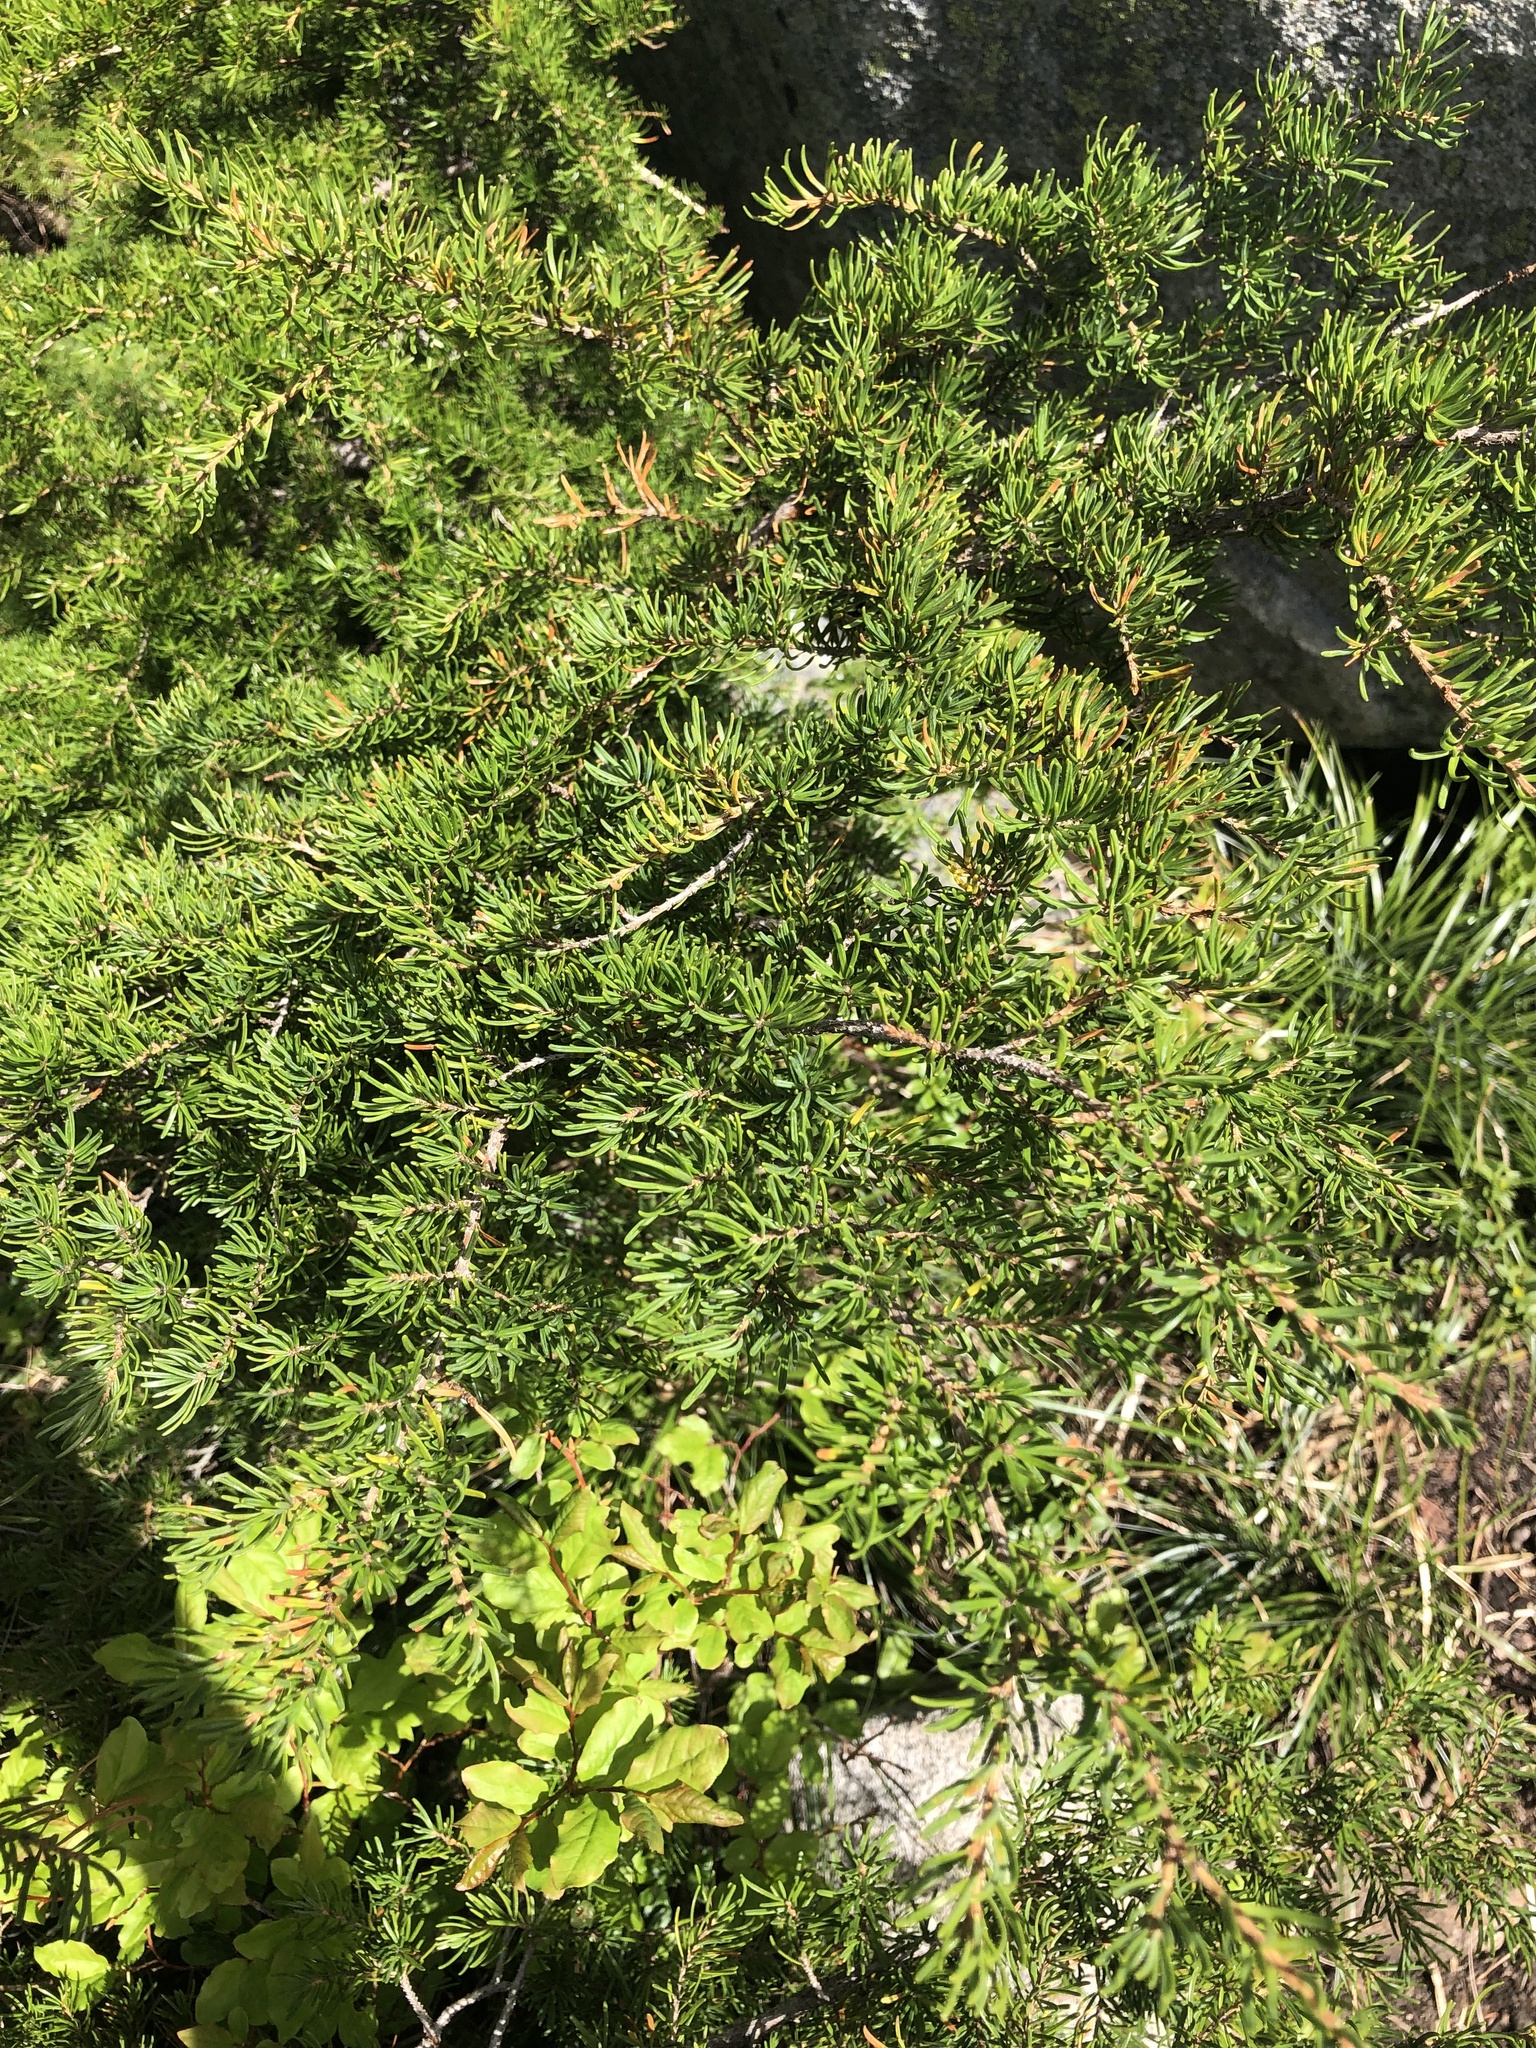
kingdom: Plantae
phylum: Tracheophyta
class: Pinopsida
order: Pinales
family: Pinaceae
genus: Tsuga
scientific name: Tsuga mertensiana
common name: Mountain hemlock
